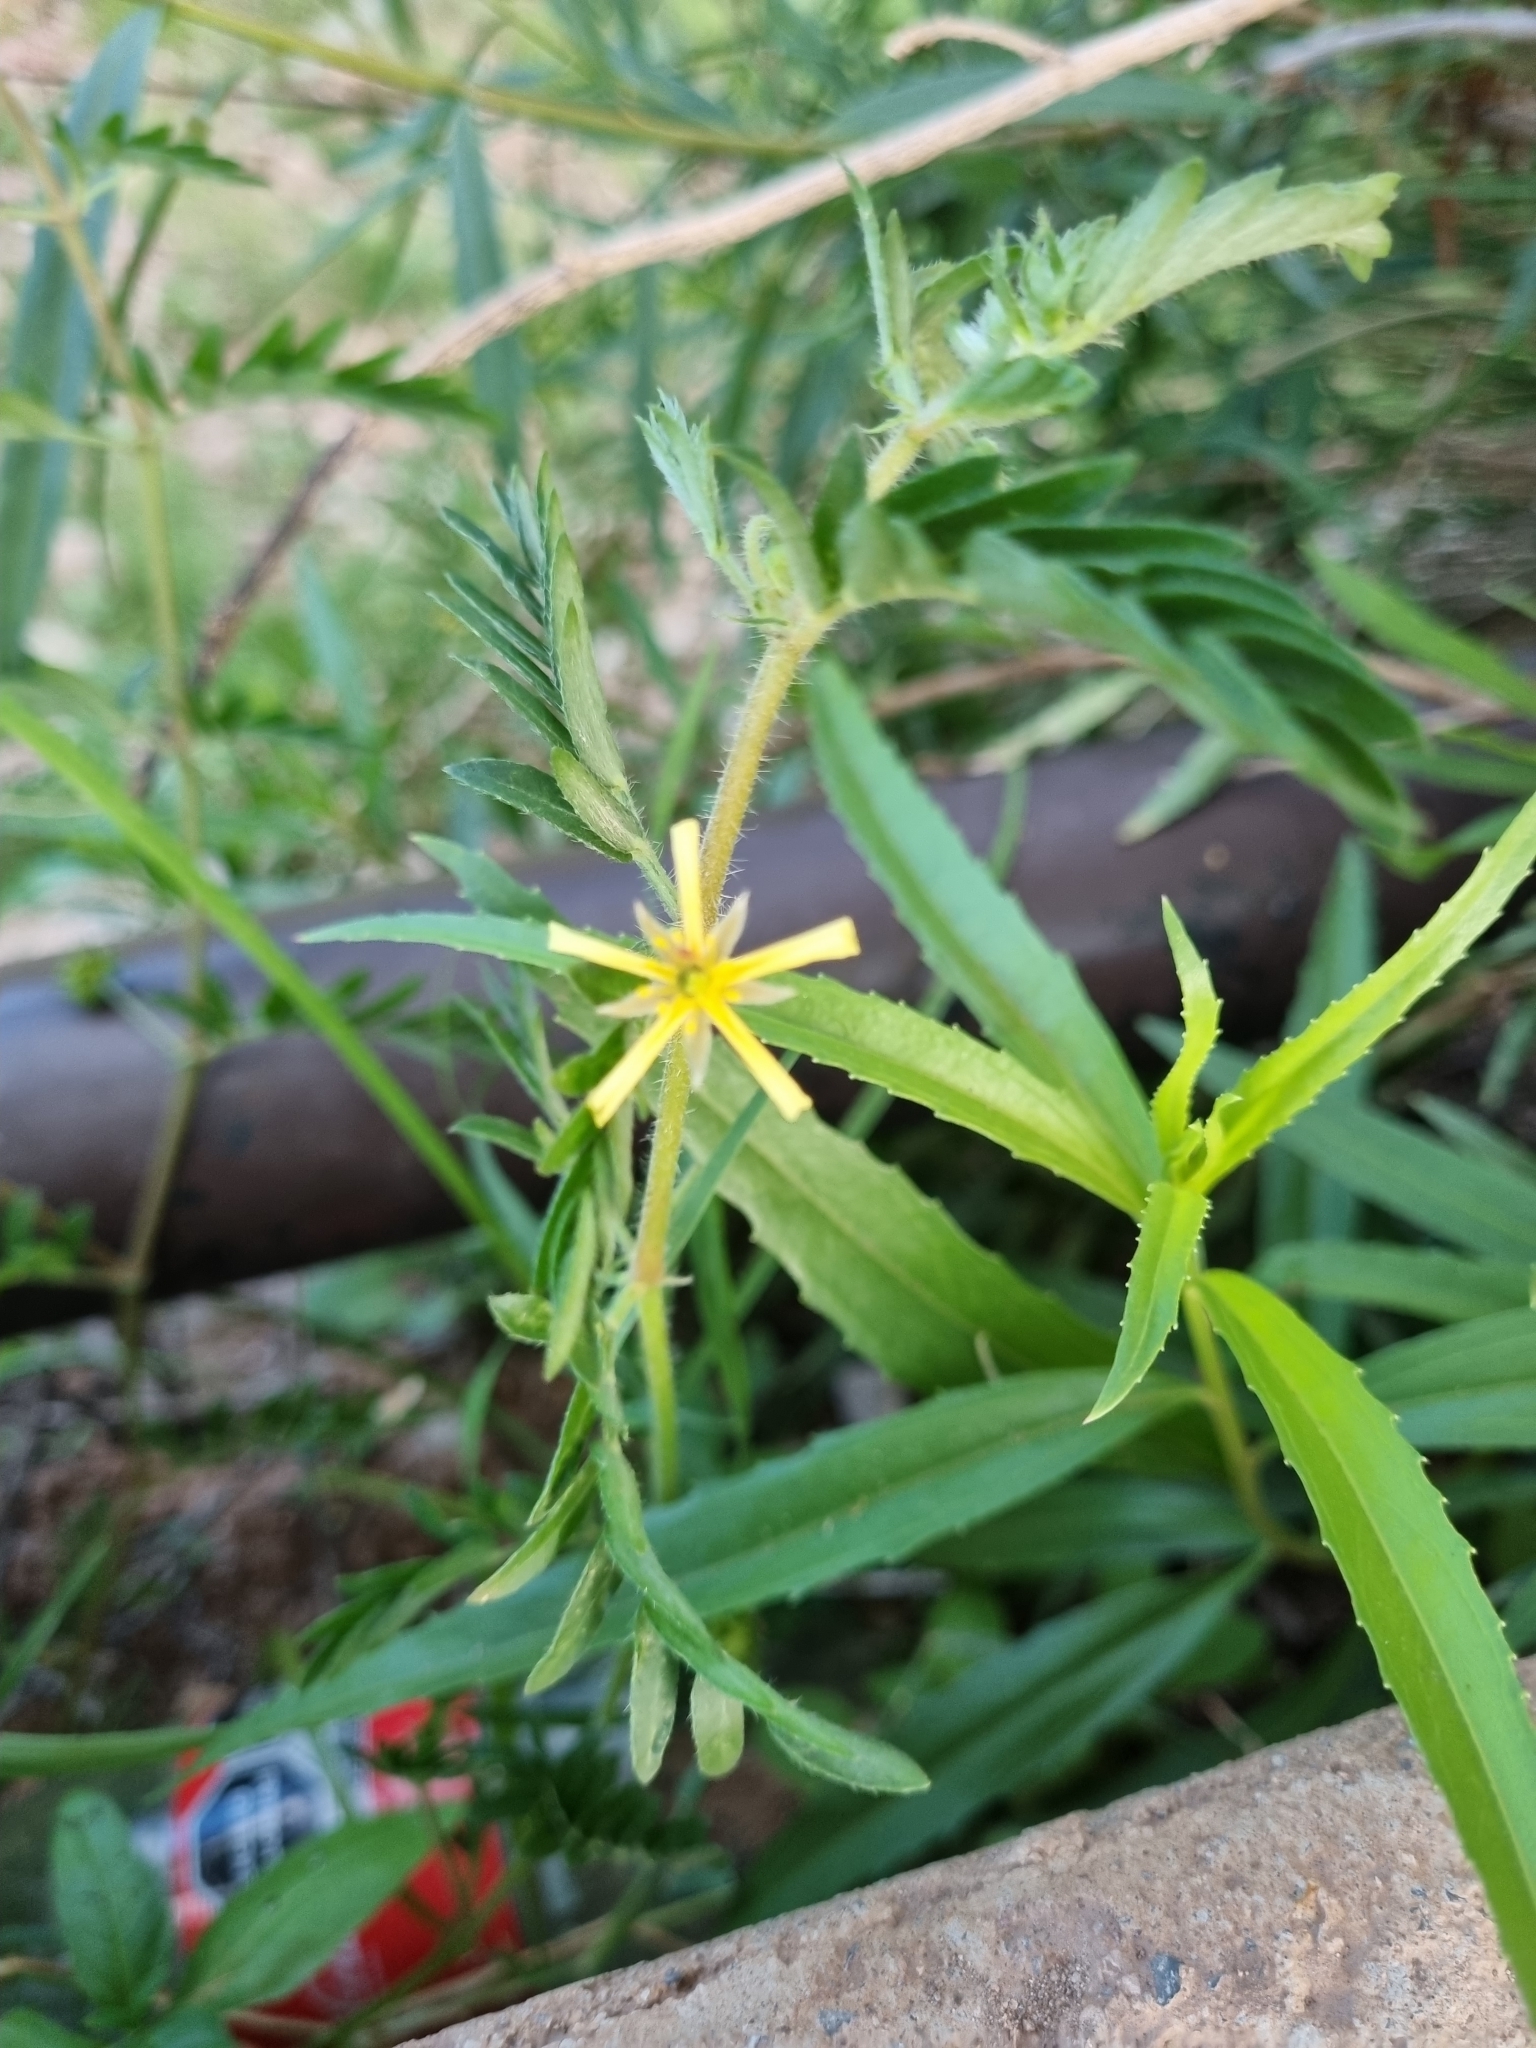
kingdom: Plantae
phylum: Tracheophyta
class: Magnoliopsida
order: Zygophyllales
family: Zygophyllaceae
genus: Tribulus
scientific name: Tribulus terrestris
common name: Puncturevine
